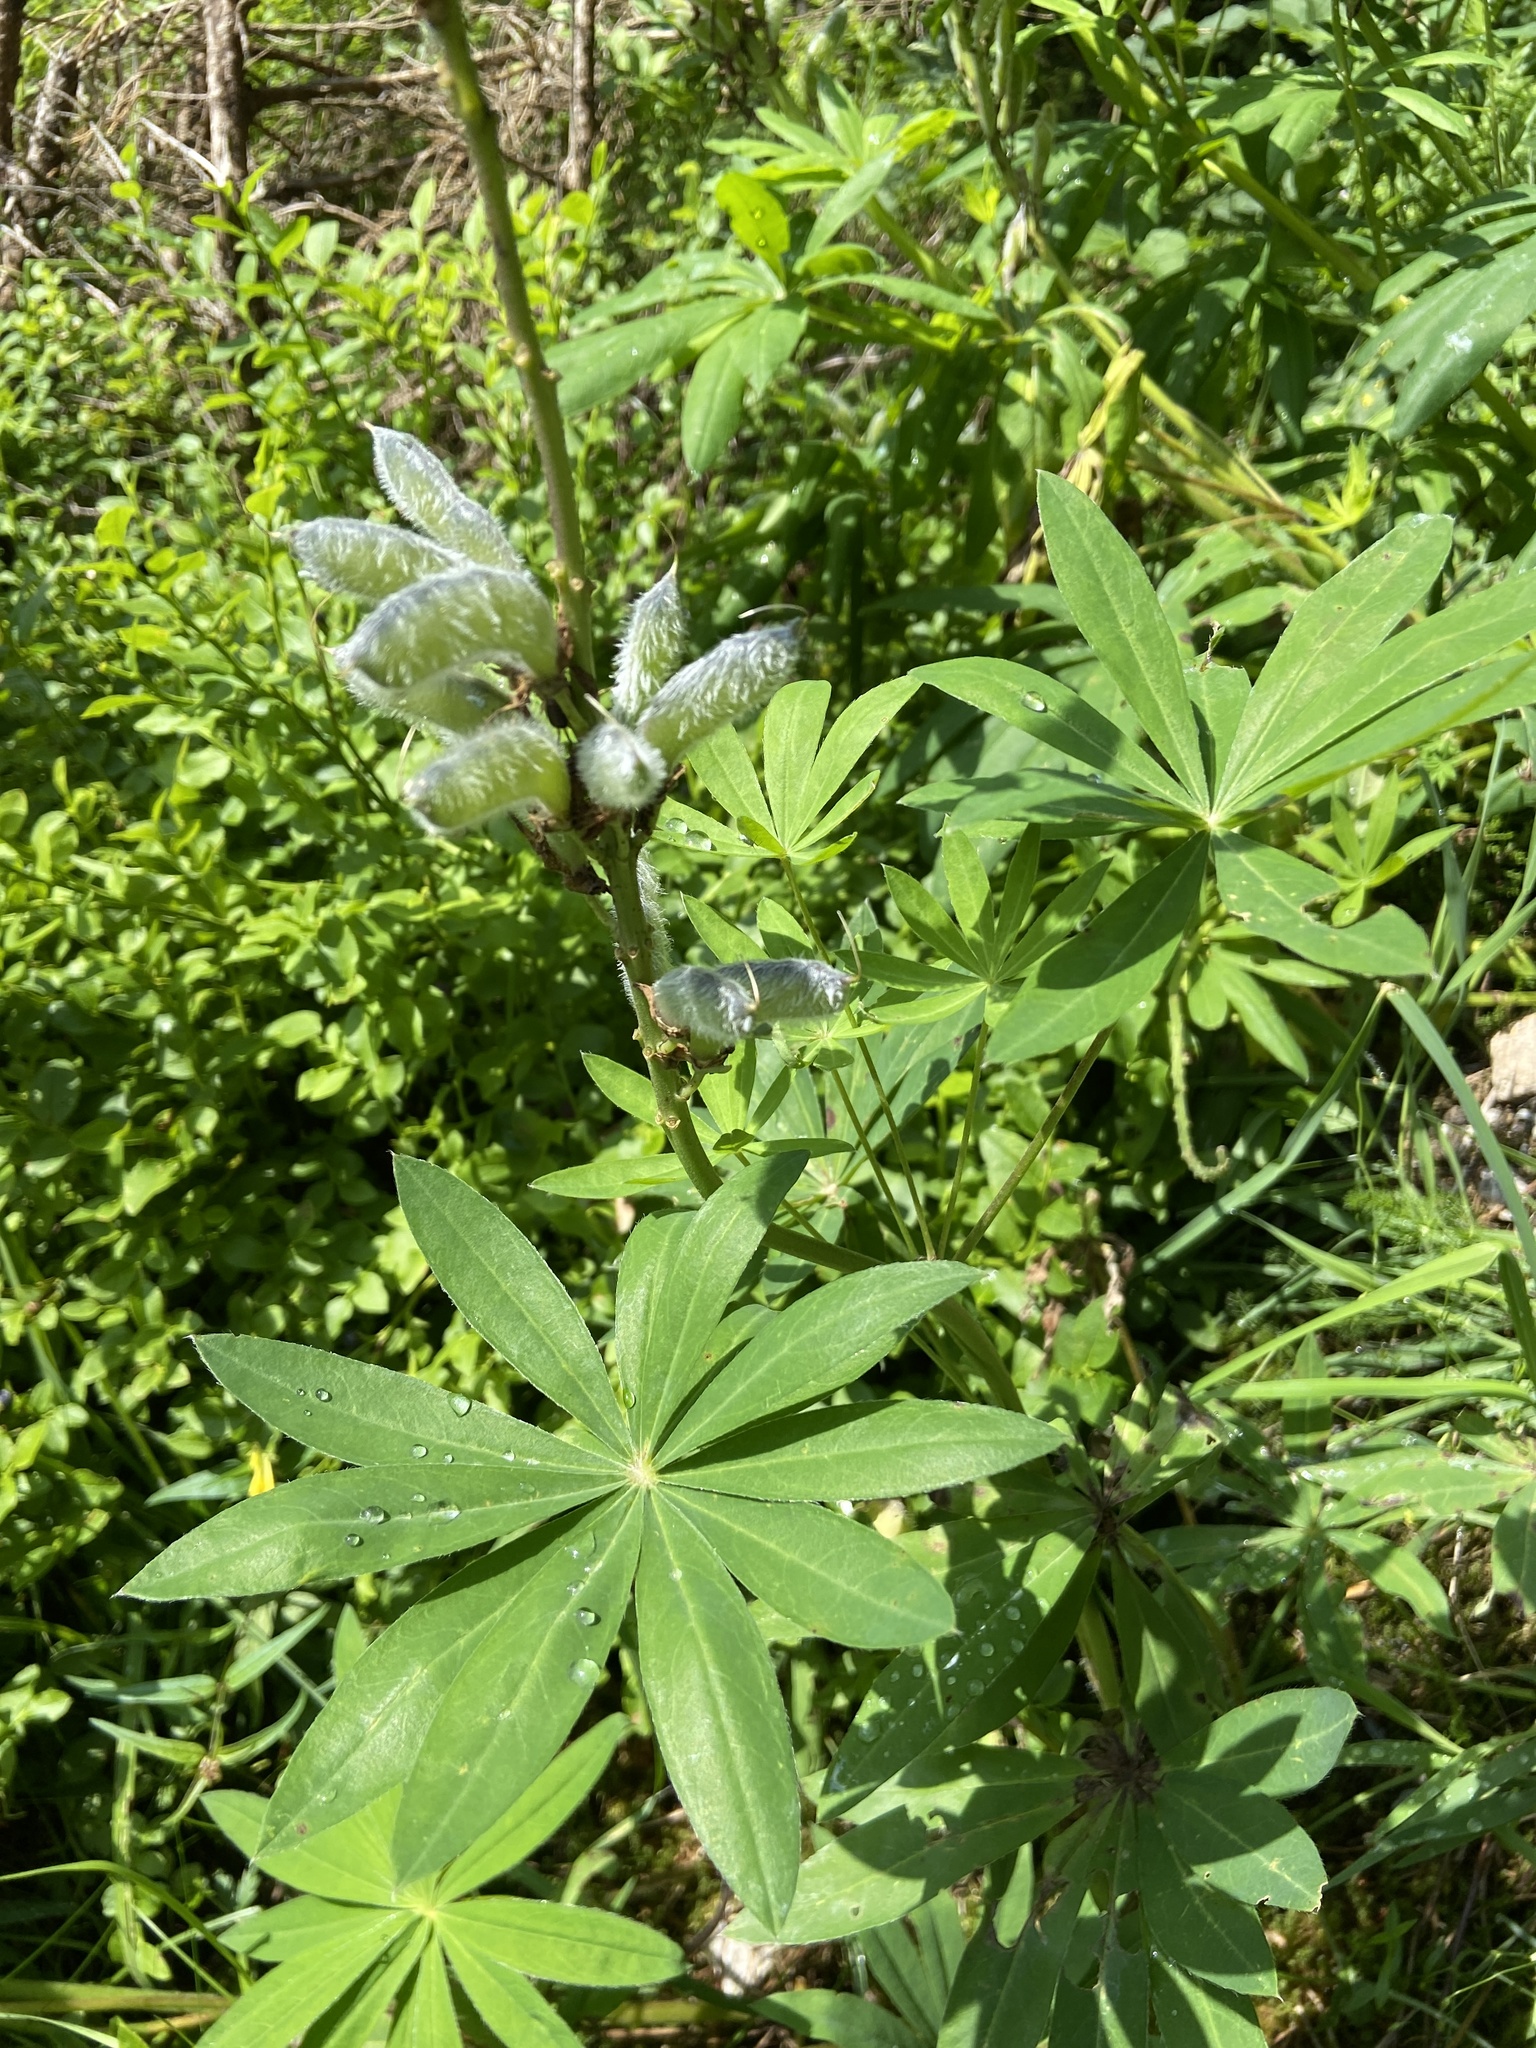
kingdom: Plantae
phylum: Tracheophyta
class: Magnoliopsida
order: Fabales
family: Fabaceae
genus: Lupinus
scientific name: Lupinus polyphyllus
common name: Garden lupin
